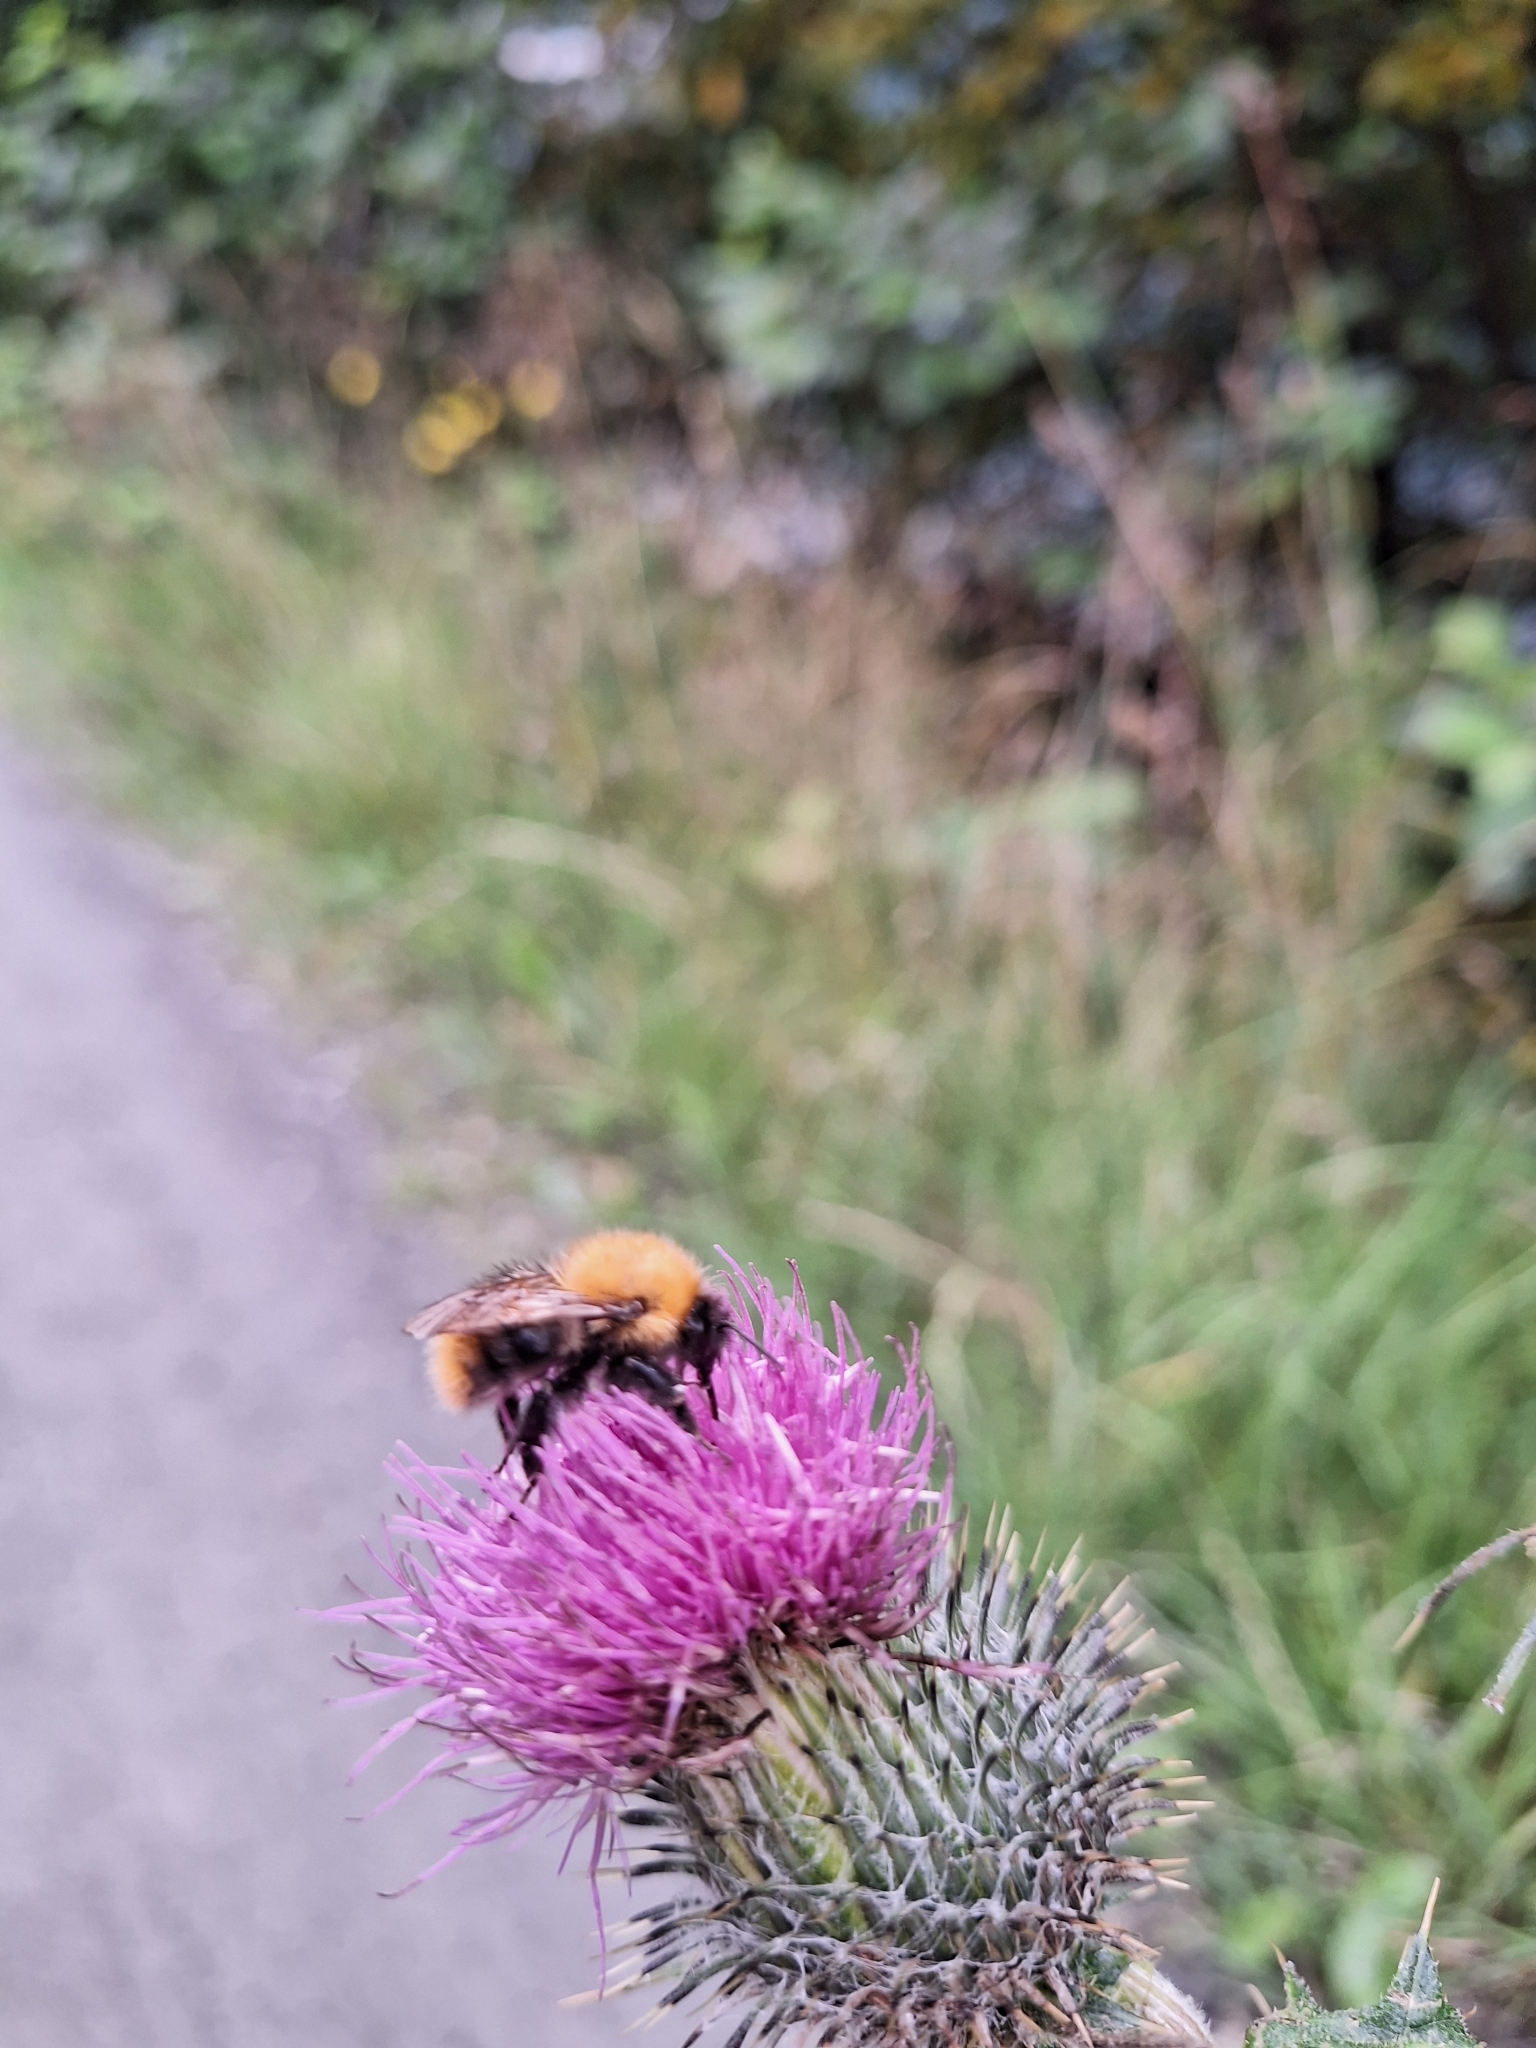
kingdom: Animalia
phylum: Arthropoda
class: Insecta
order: Hymenoptera
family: Apidae
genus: Bombus
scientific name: Bombus pascuorum
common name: Common carder bee
